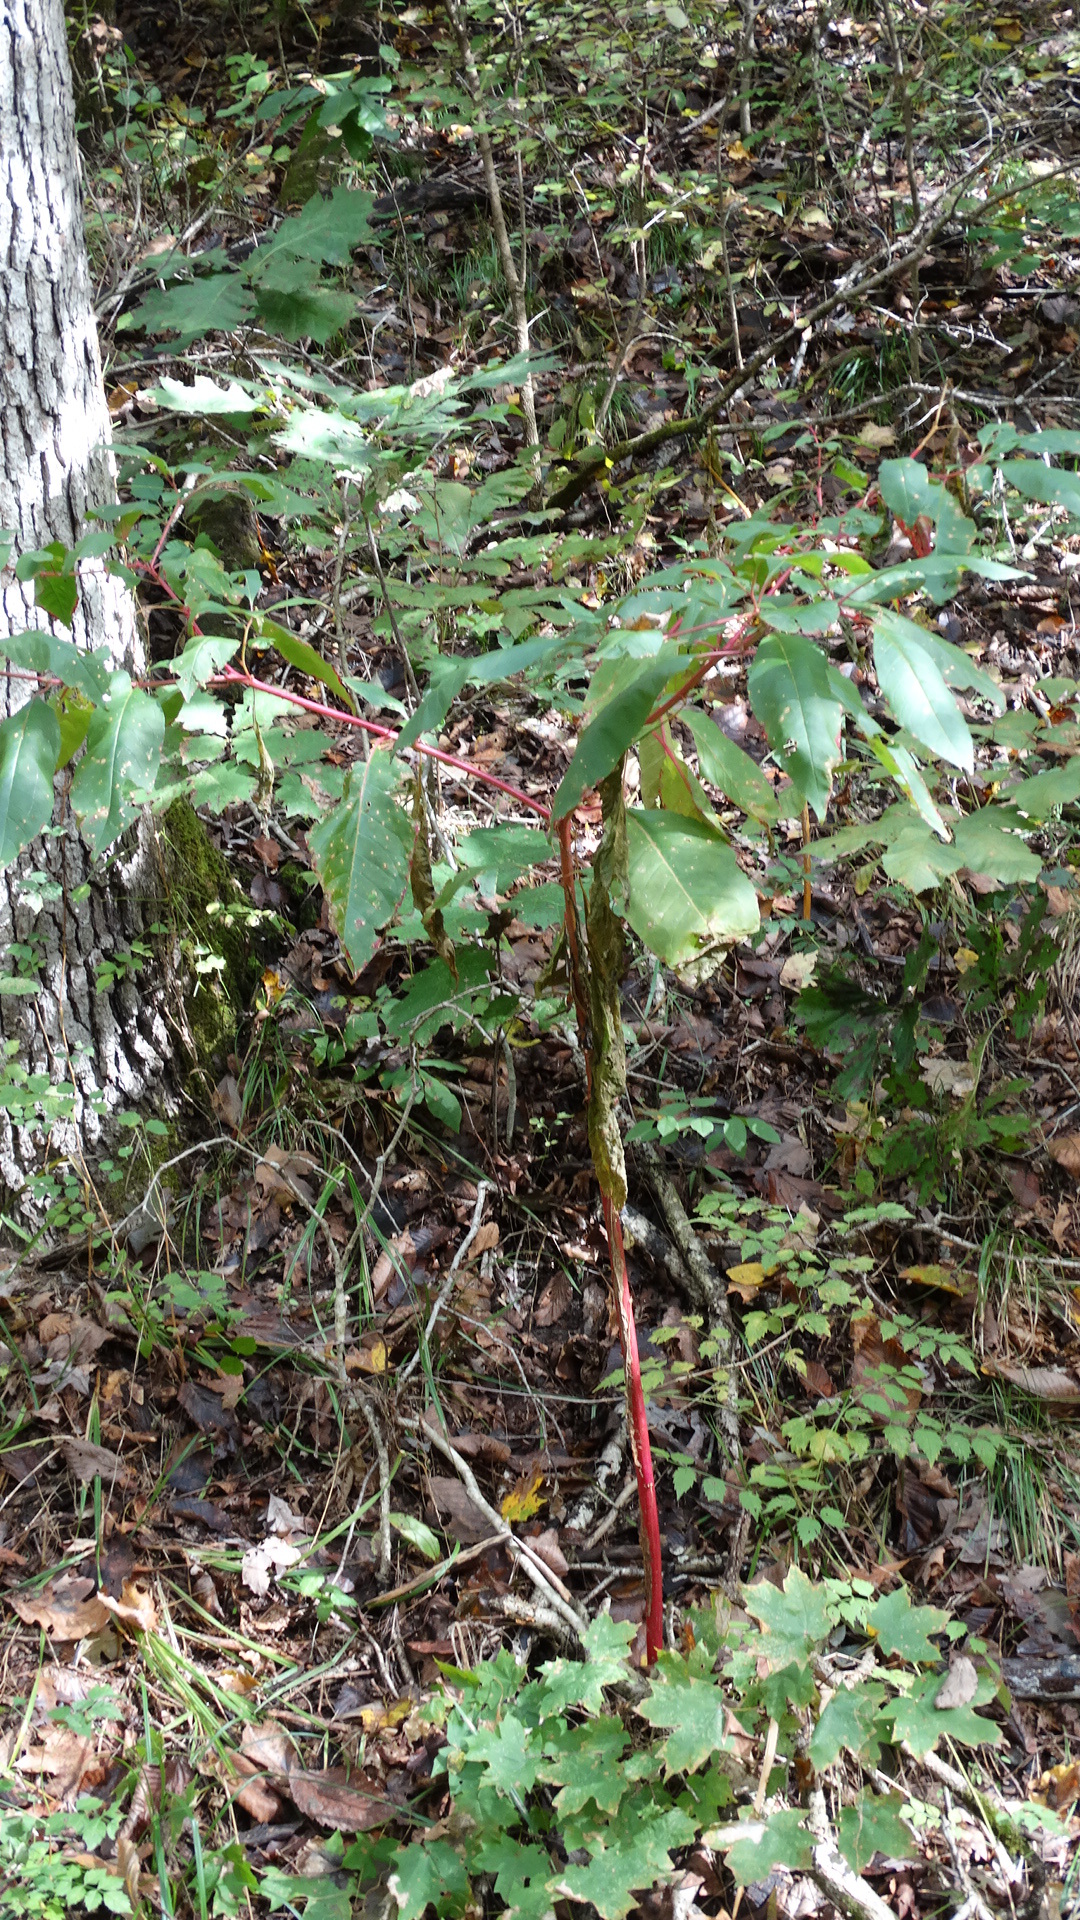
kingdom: Plantae
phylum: Tracheophyta
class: Magnoliopsida
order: Caryophyllales
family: Phytolaccaceae
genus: Phytolacca
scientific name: Phytolacca americana
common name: American pokeweed
